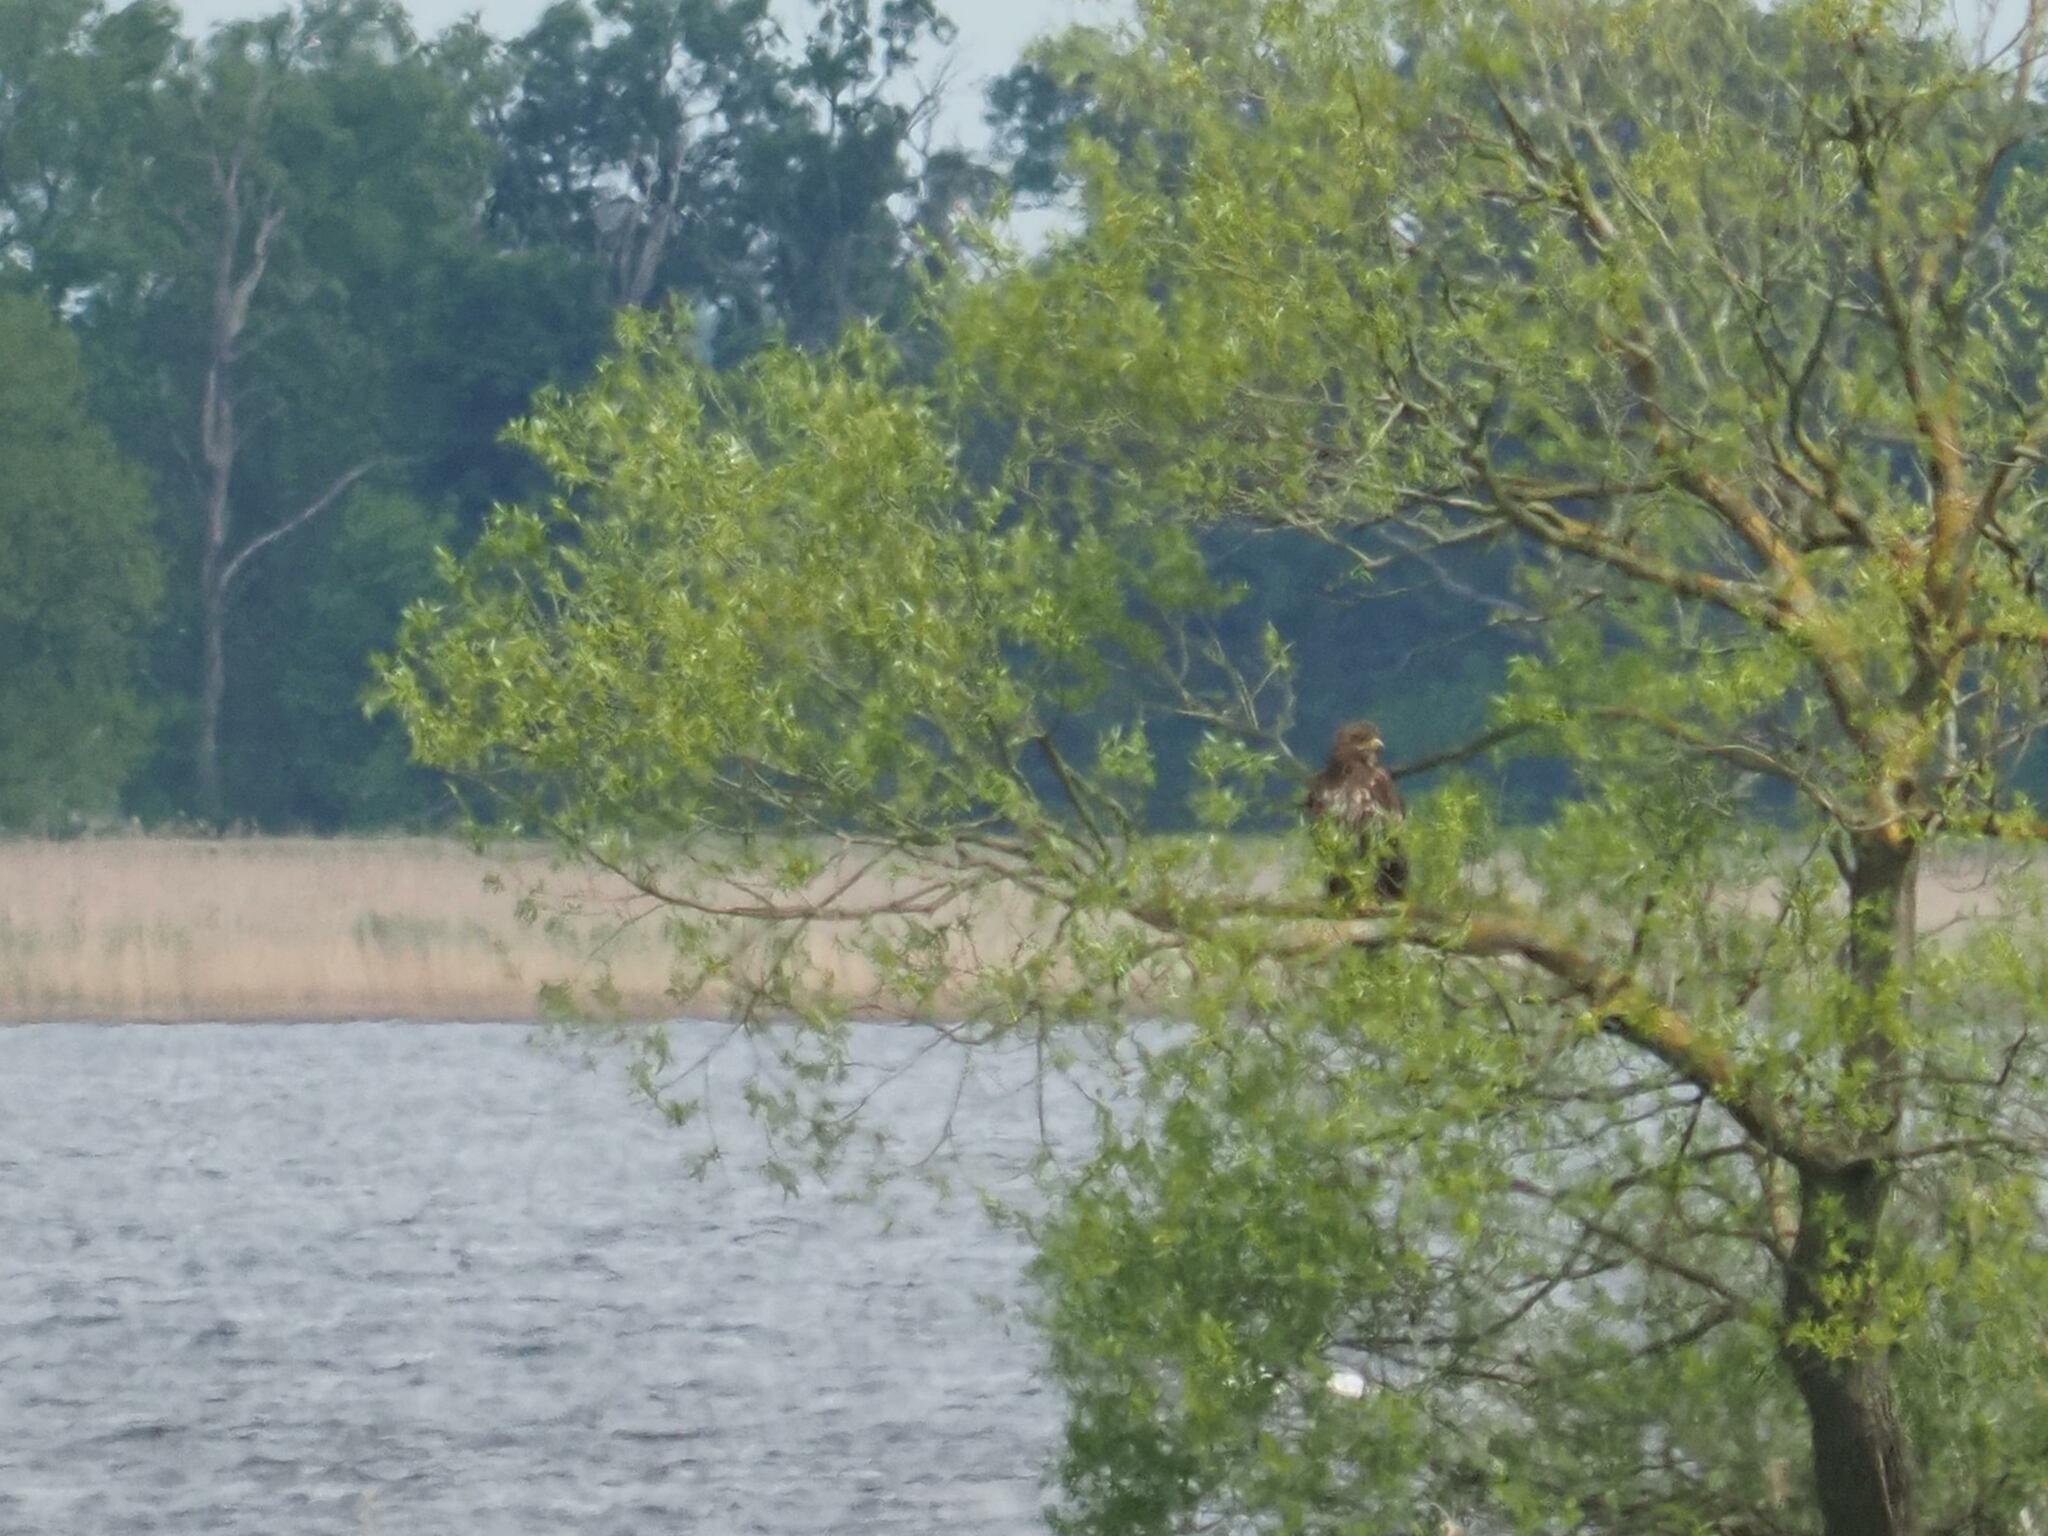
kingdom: Animalia
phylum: Chordata
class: Aves
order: Accipitriformes
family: Accipitridae
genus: Haliaeetus
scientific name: Haliaeetus albicilla
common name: White-tailed eagle
